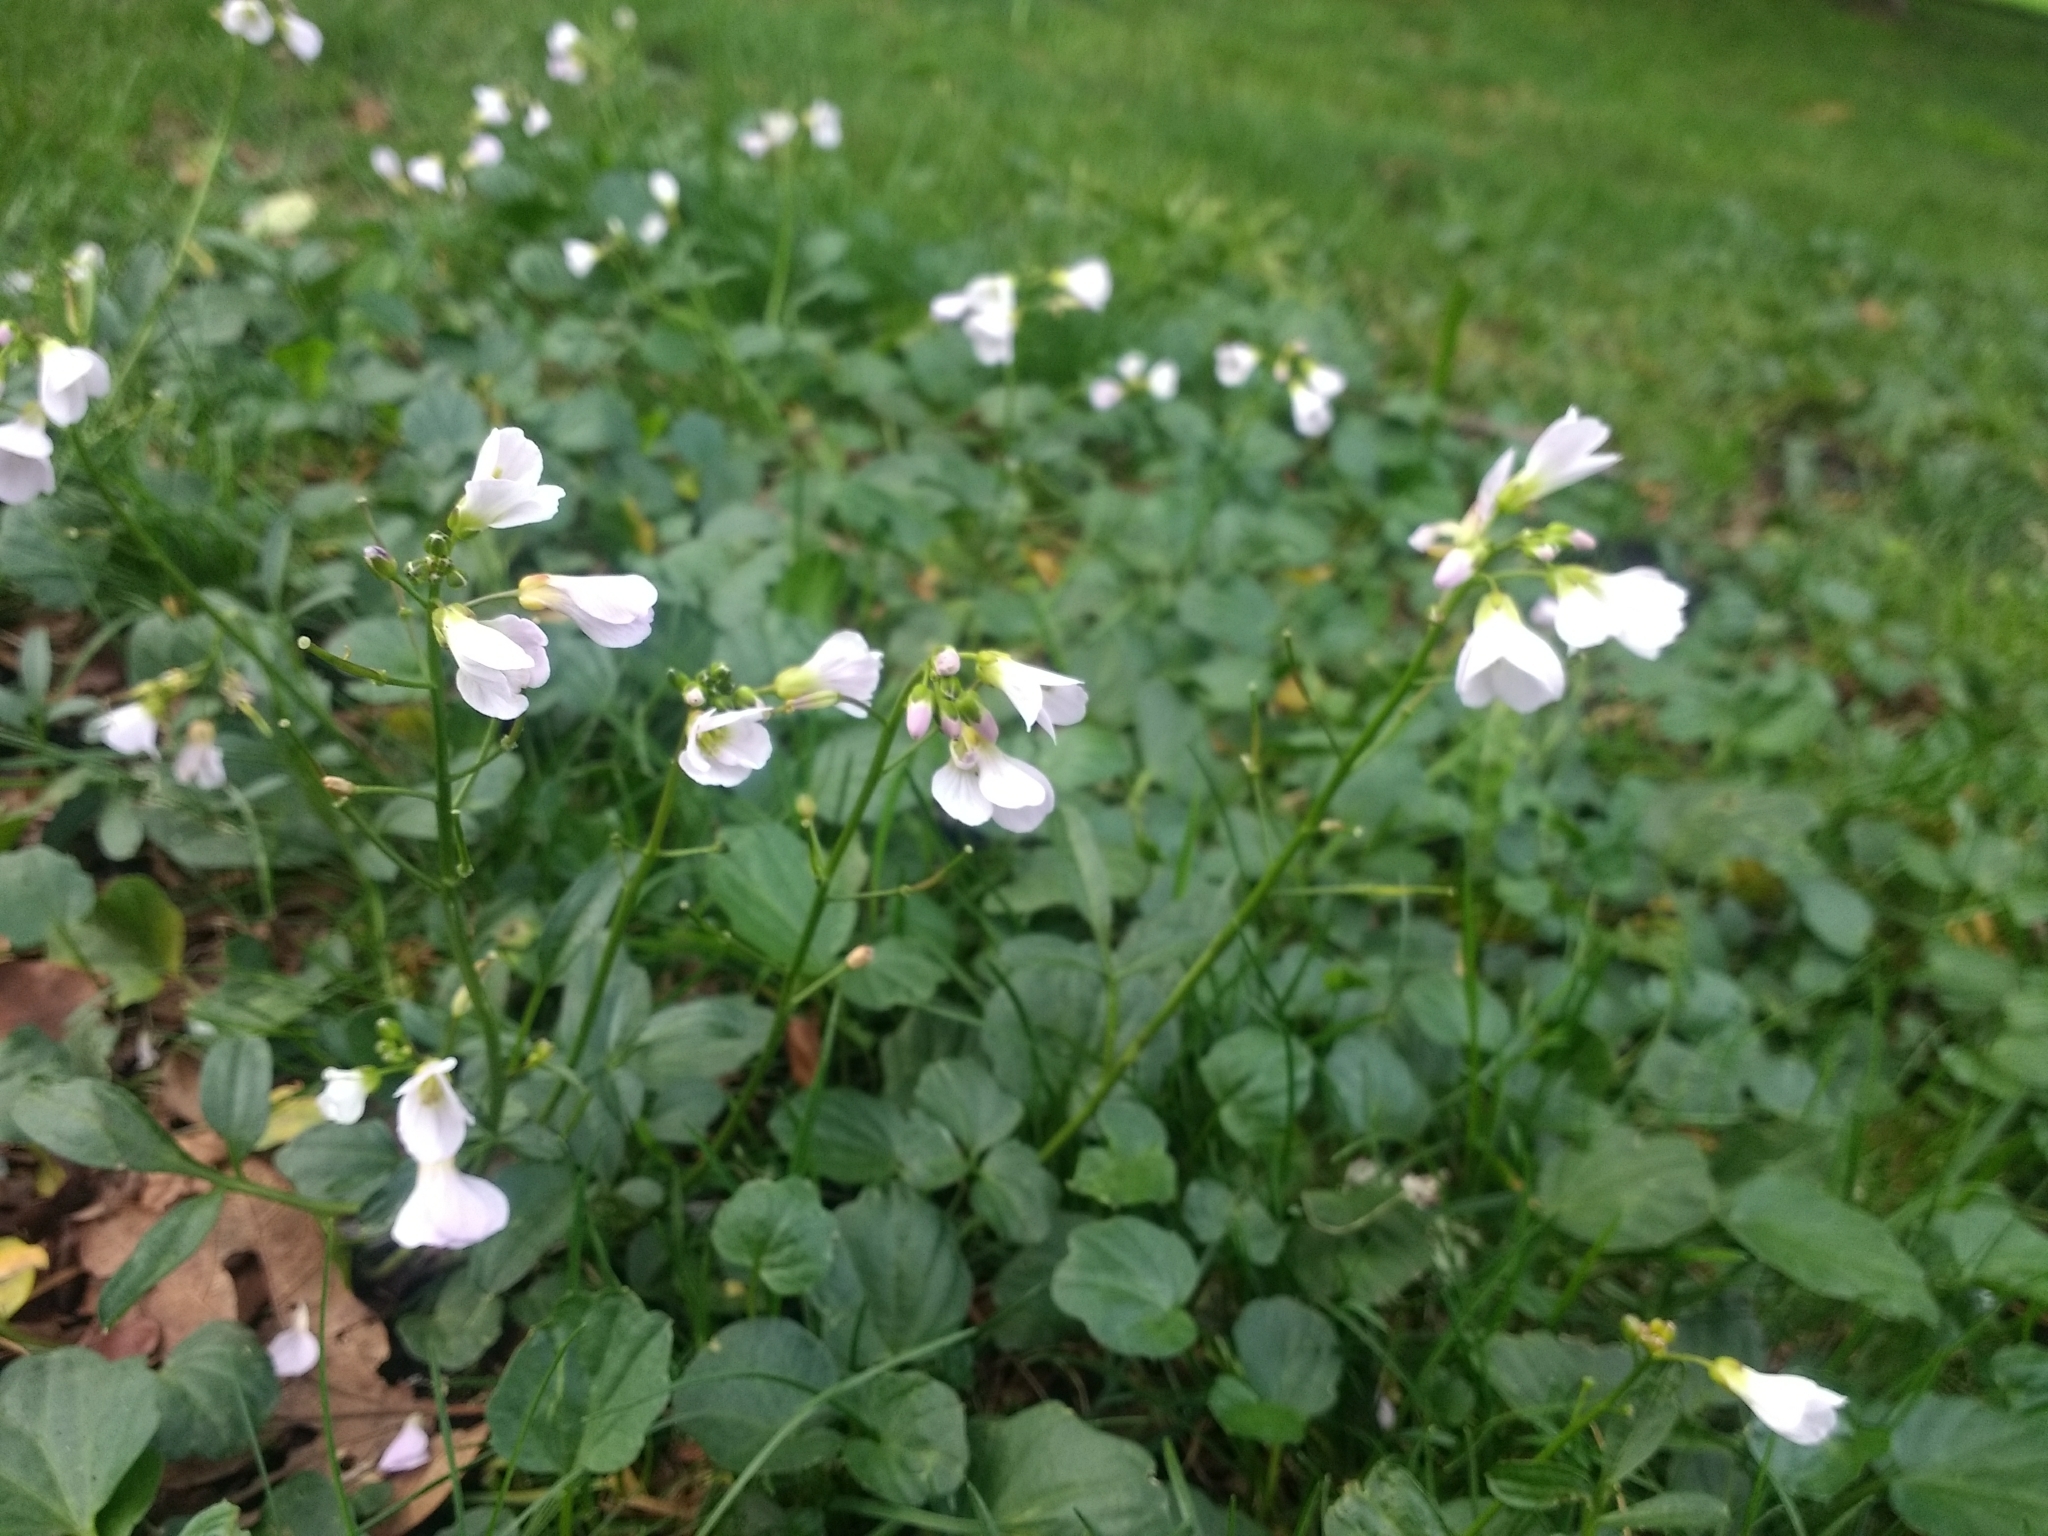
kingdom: Plantae
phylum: Tracheophyta
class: Magnoliopsida
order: Brassicales
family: Brassicaceae
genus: Cardamine
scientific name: Cardamine nuttallii
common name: Nuttall's toothwort
